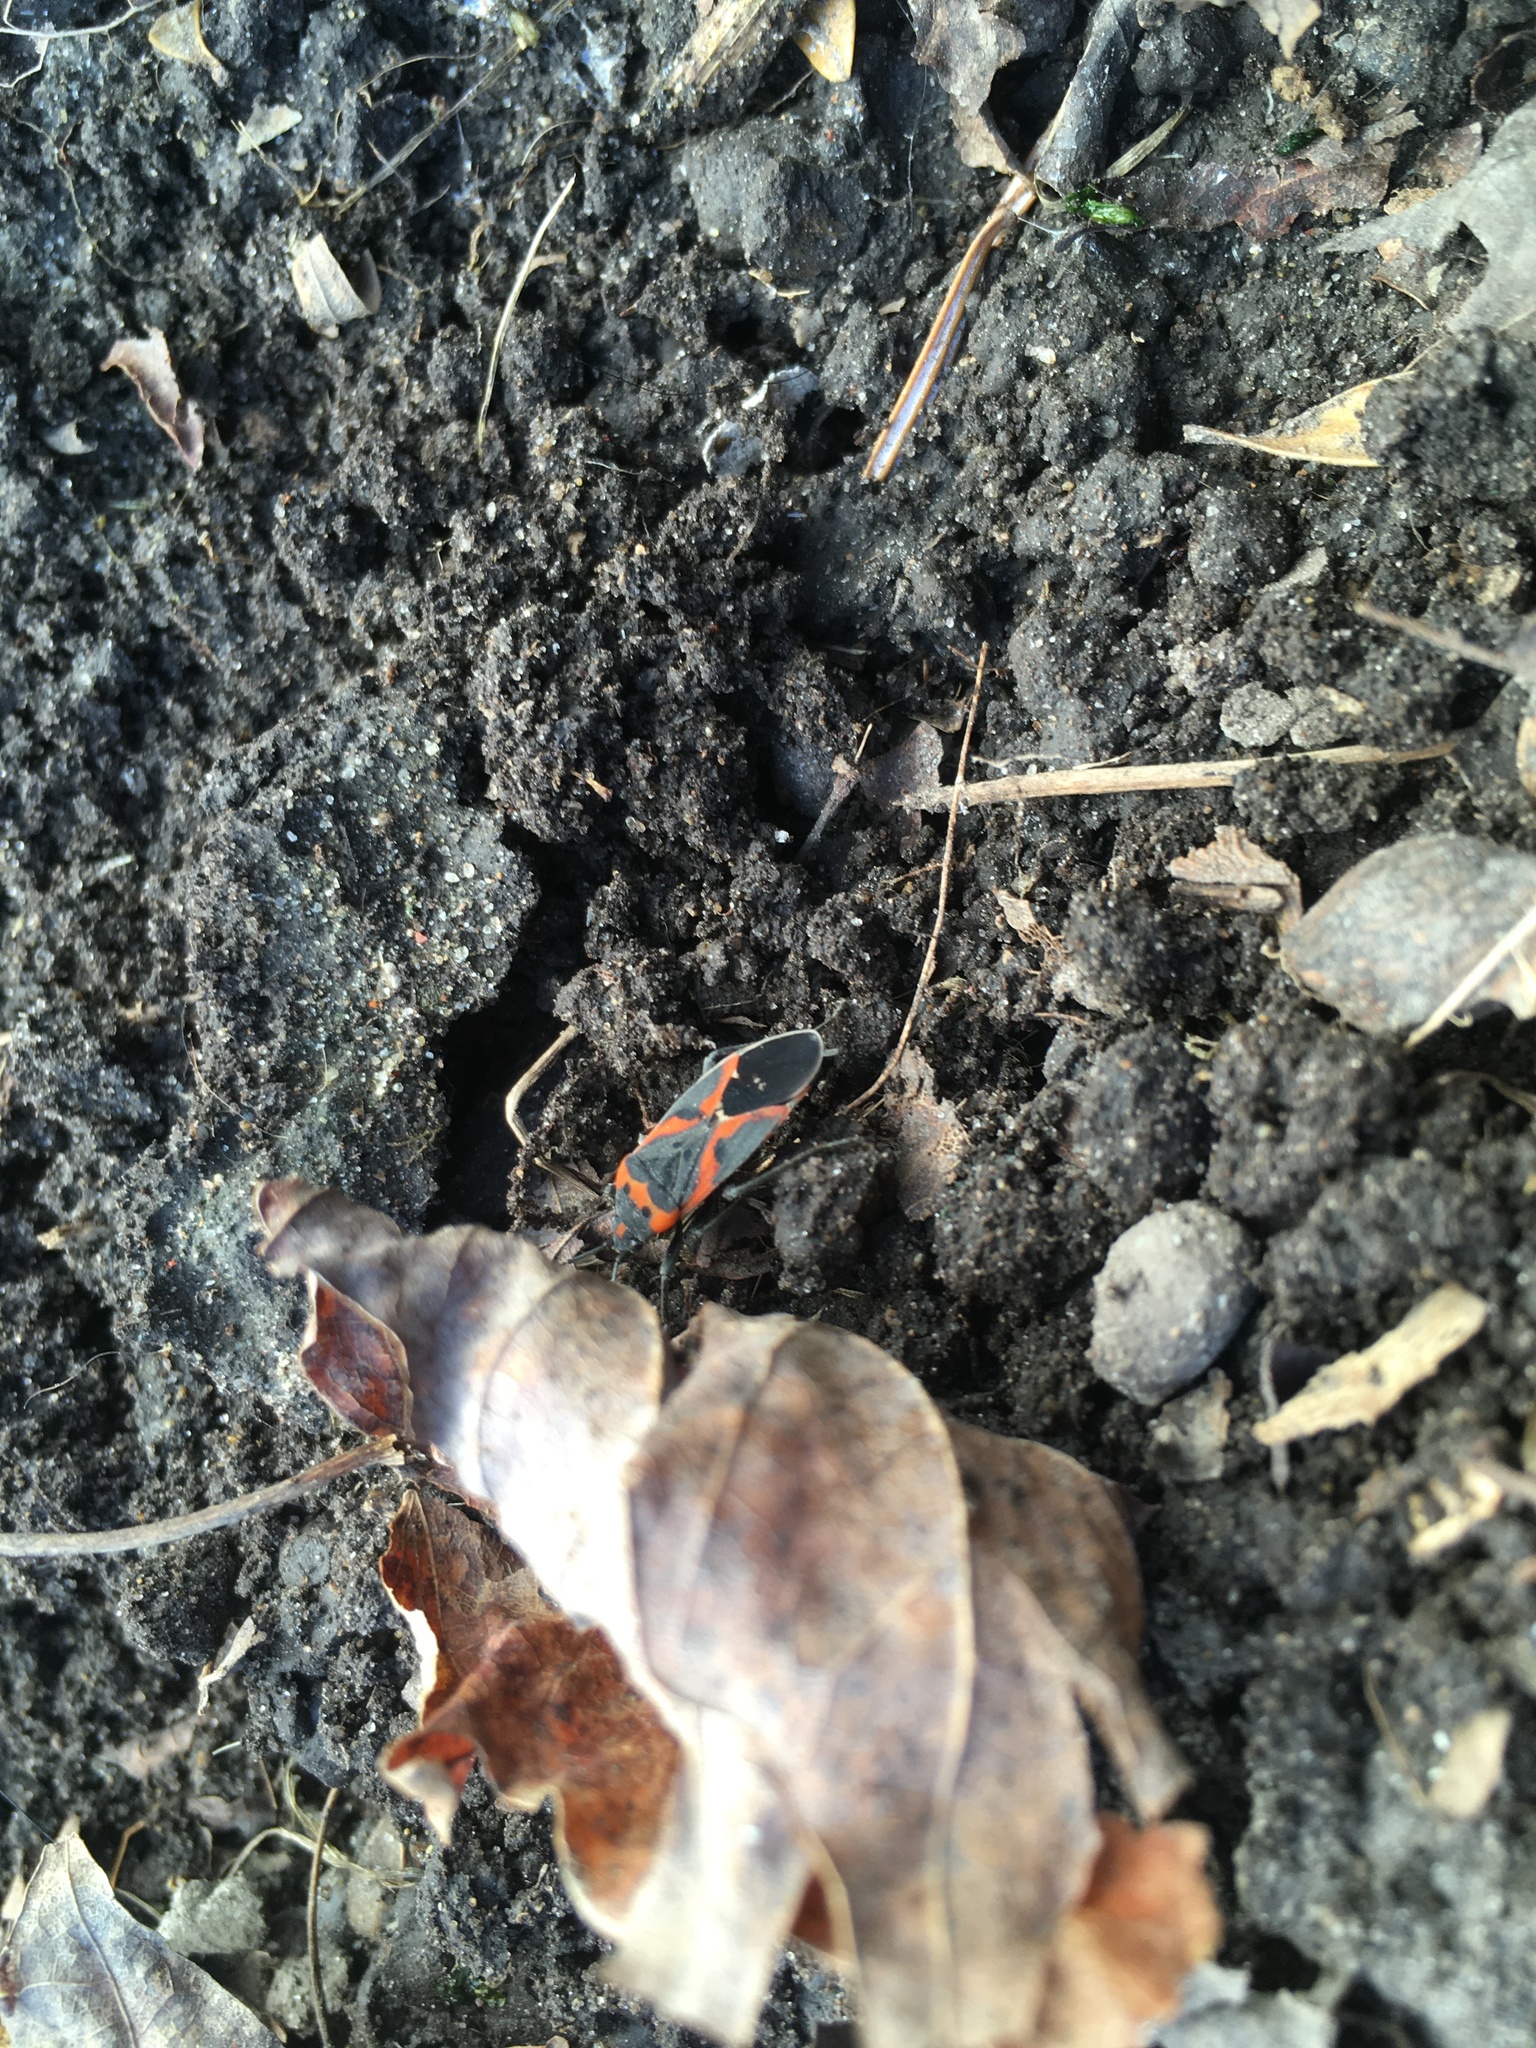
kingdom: Animalia
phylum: Arthropoda
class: Insecta
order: Hemiptera
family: Lygaeidae
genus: Lygaeus
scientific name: Lygaeus kalmii
